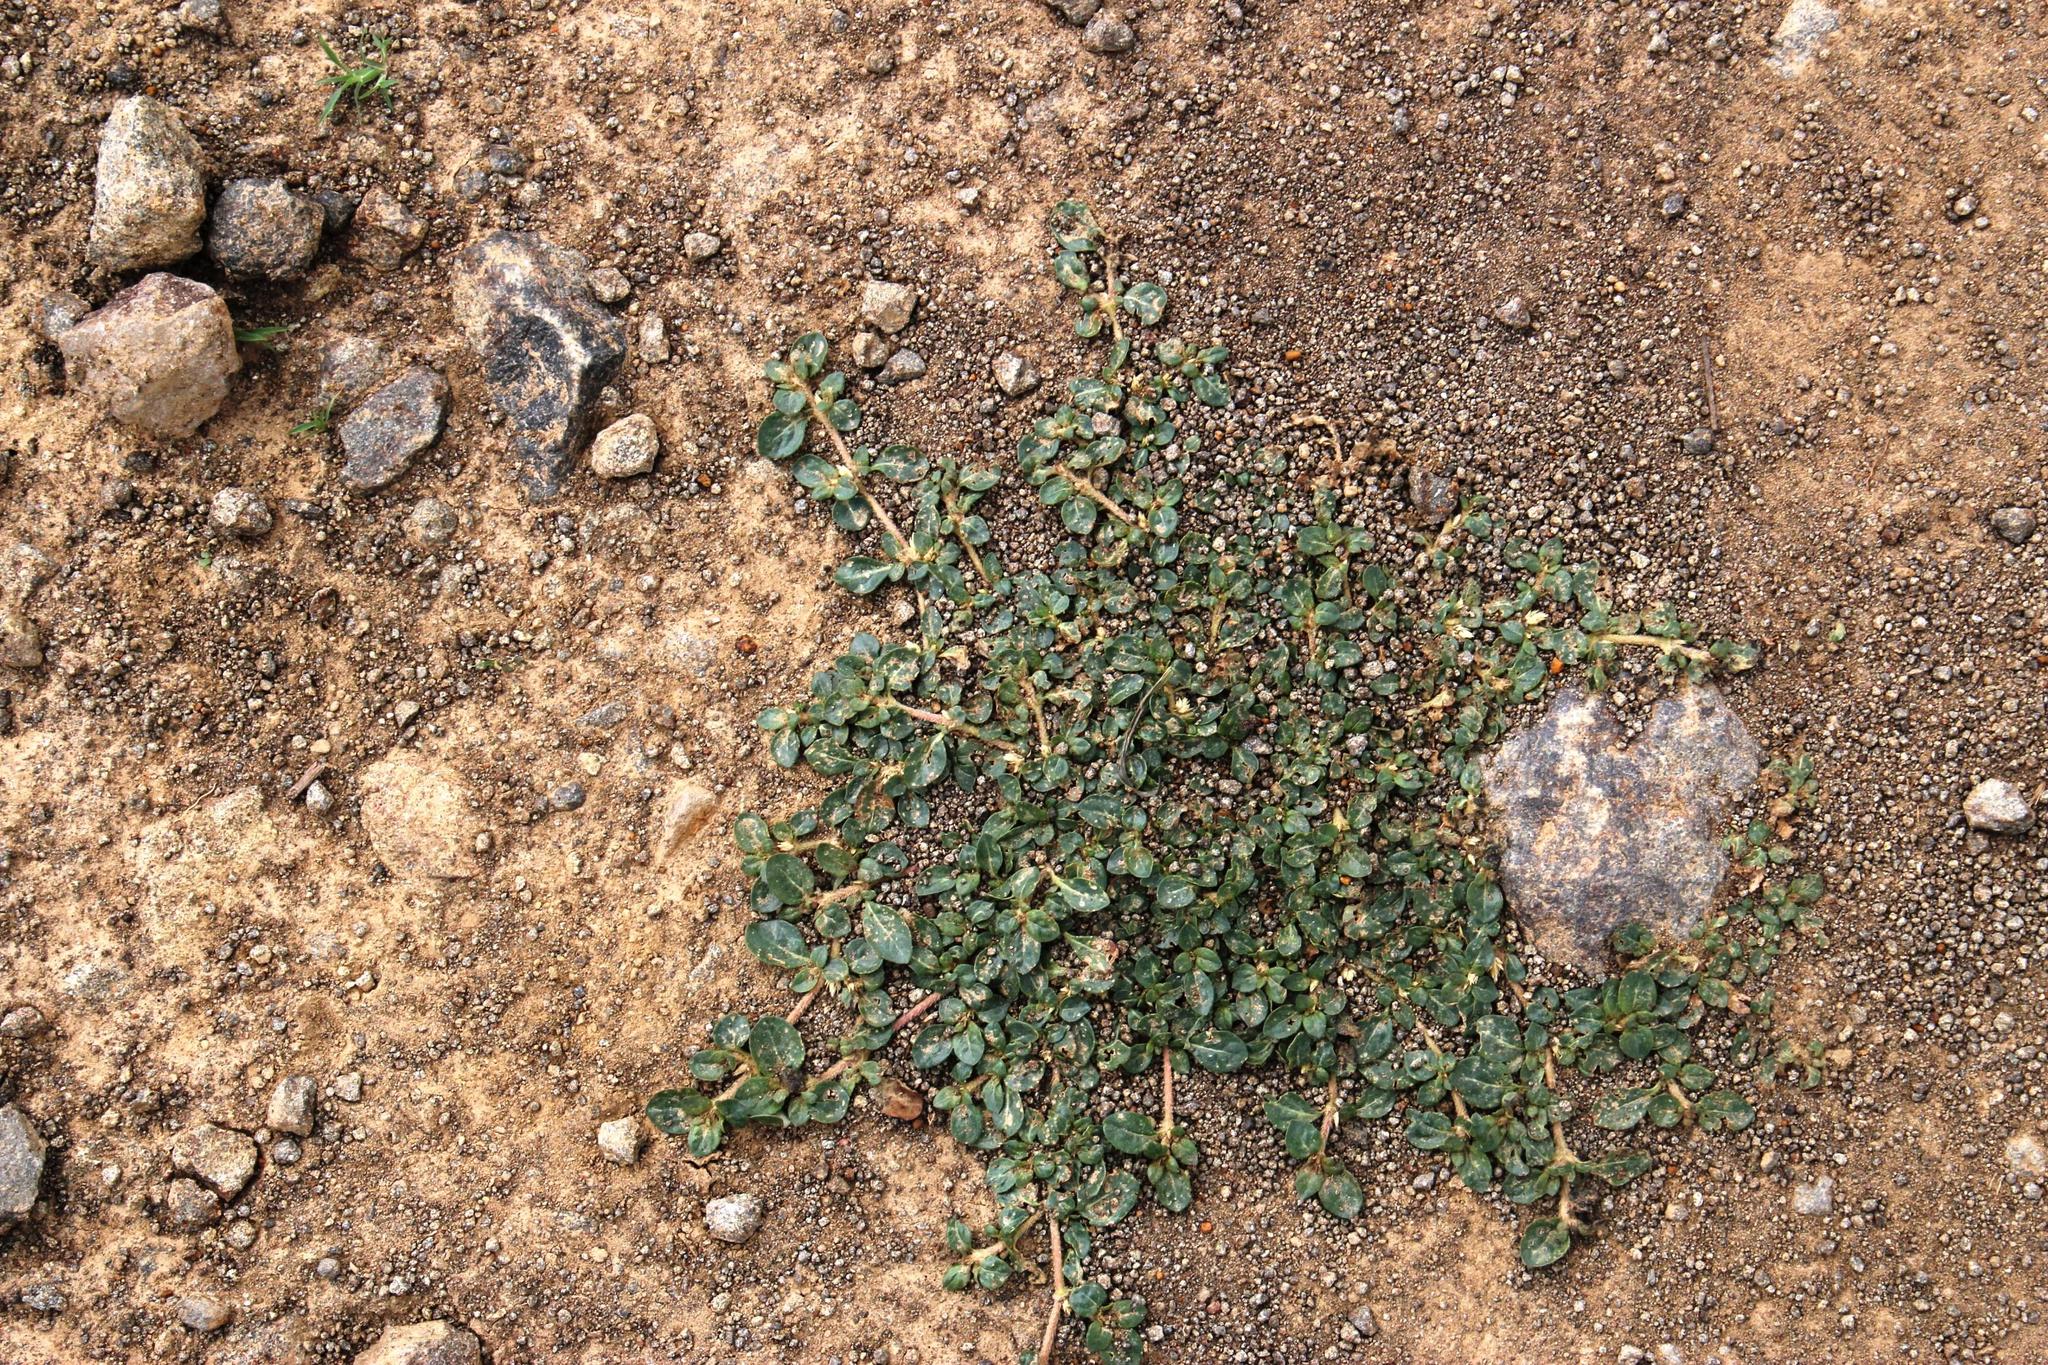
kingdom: Plantae
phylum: Tracheophyta
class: Magnoliopsida
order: Caryophyllales
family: Amaranthaceae
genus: Guilleminea
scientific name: Guilleminea densa
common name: Small matweed
